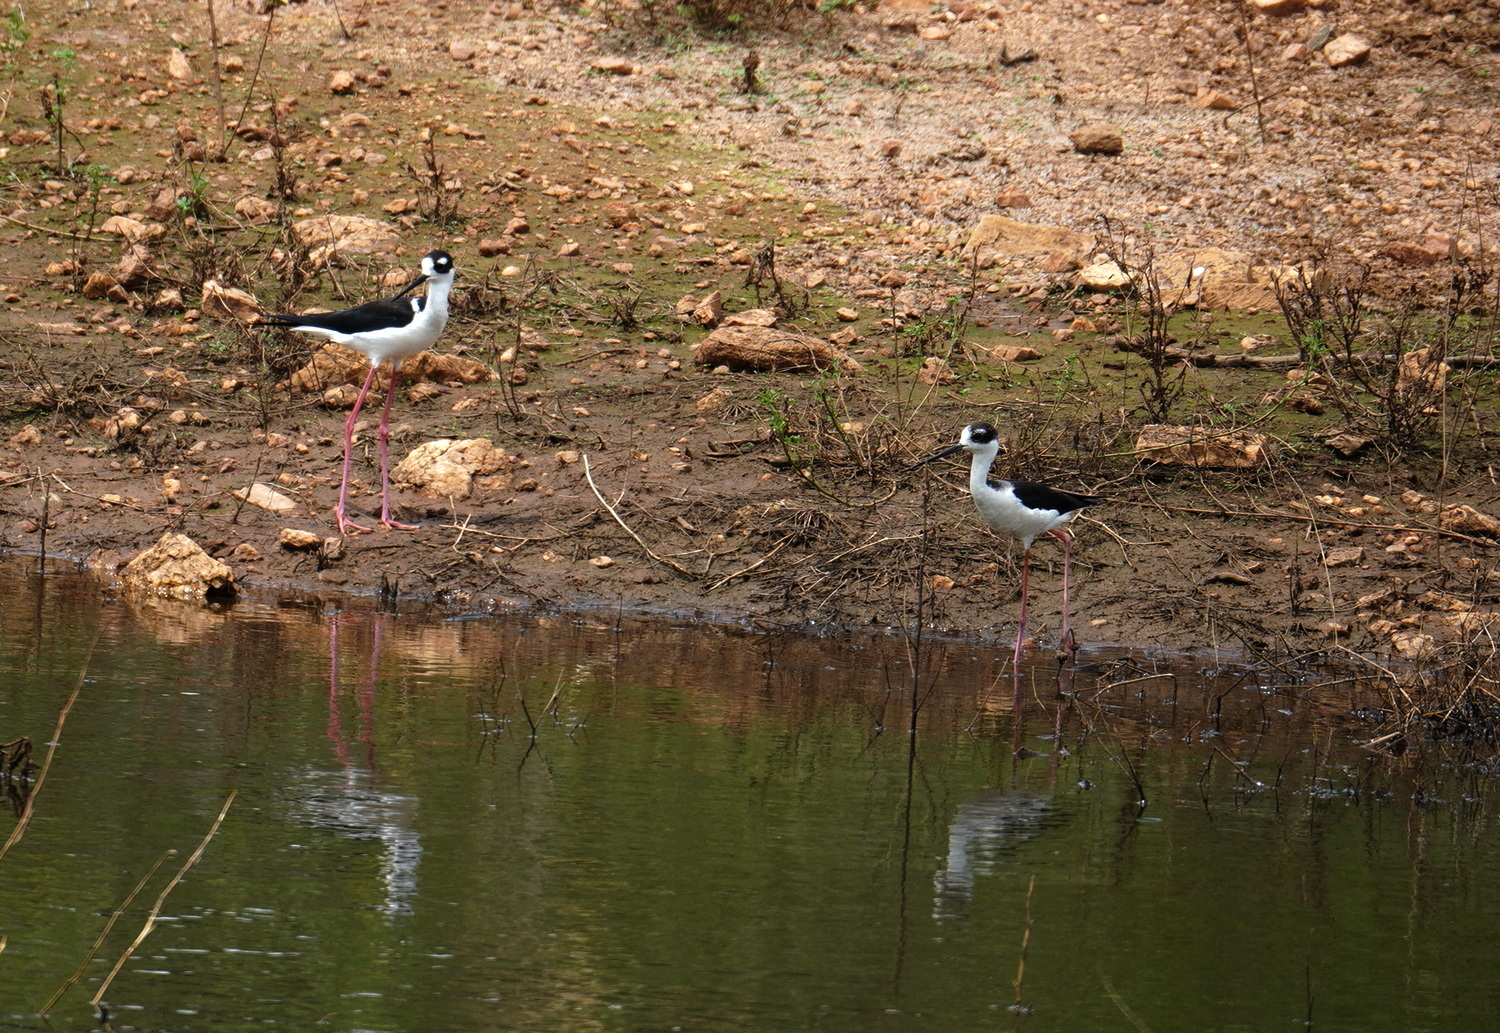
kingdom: Animalia
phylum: Chordata
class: Aves
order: Charadriiformes
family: Recurvirostridae
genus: Himantopus
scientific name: Himantopus mexicanus
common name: Black-necked stilt
